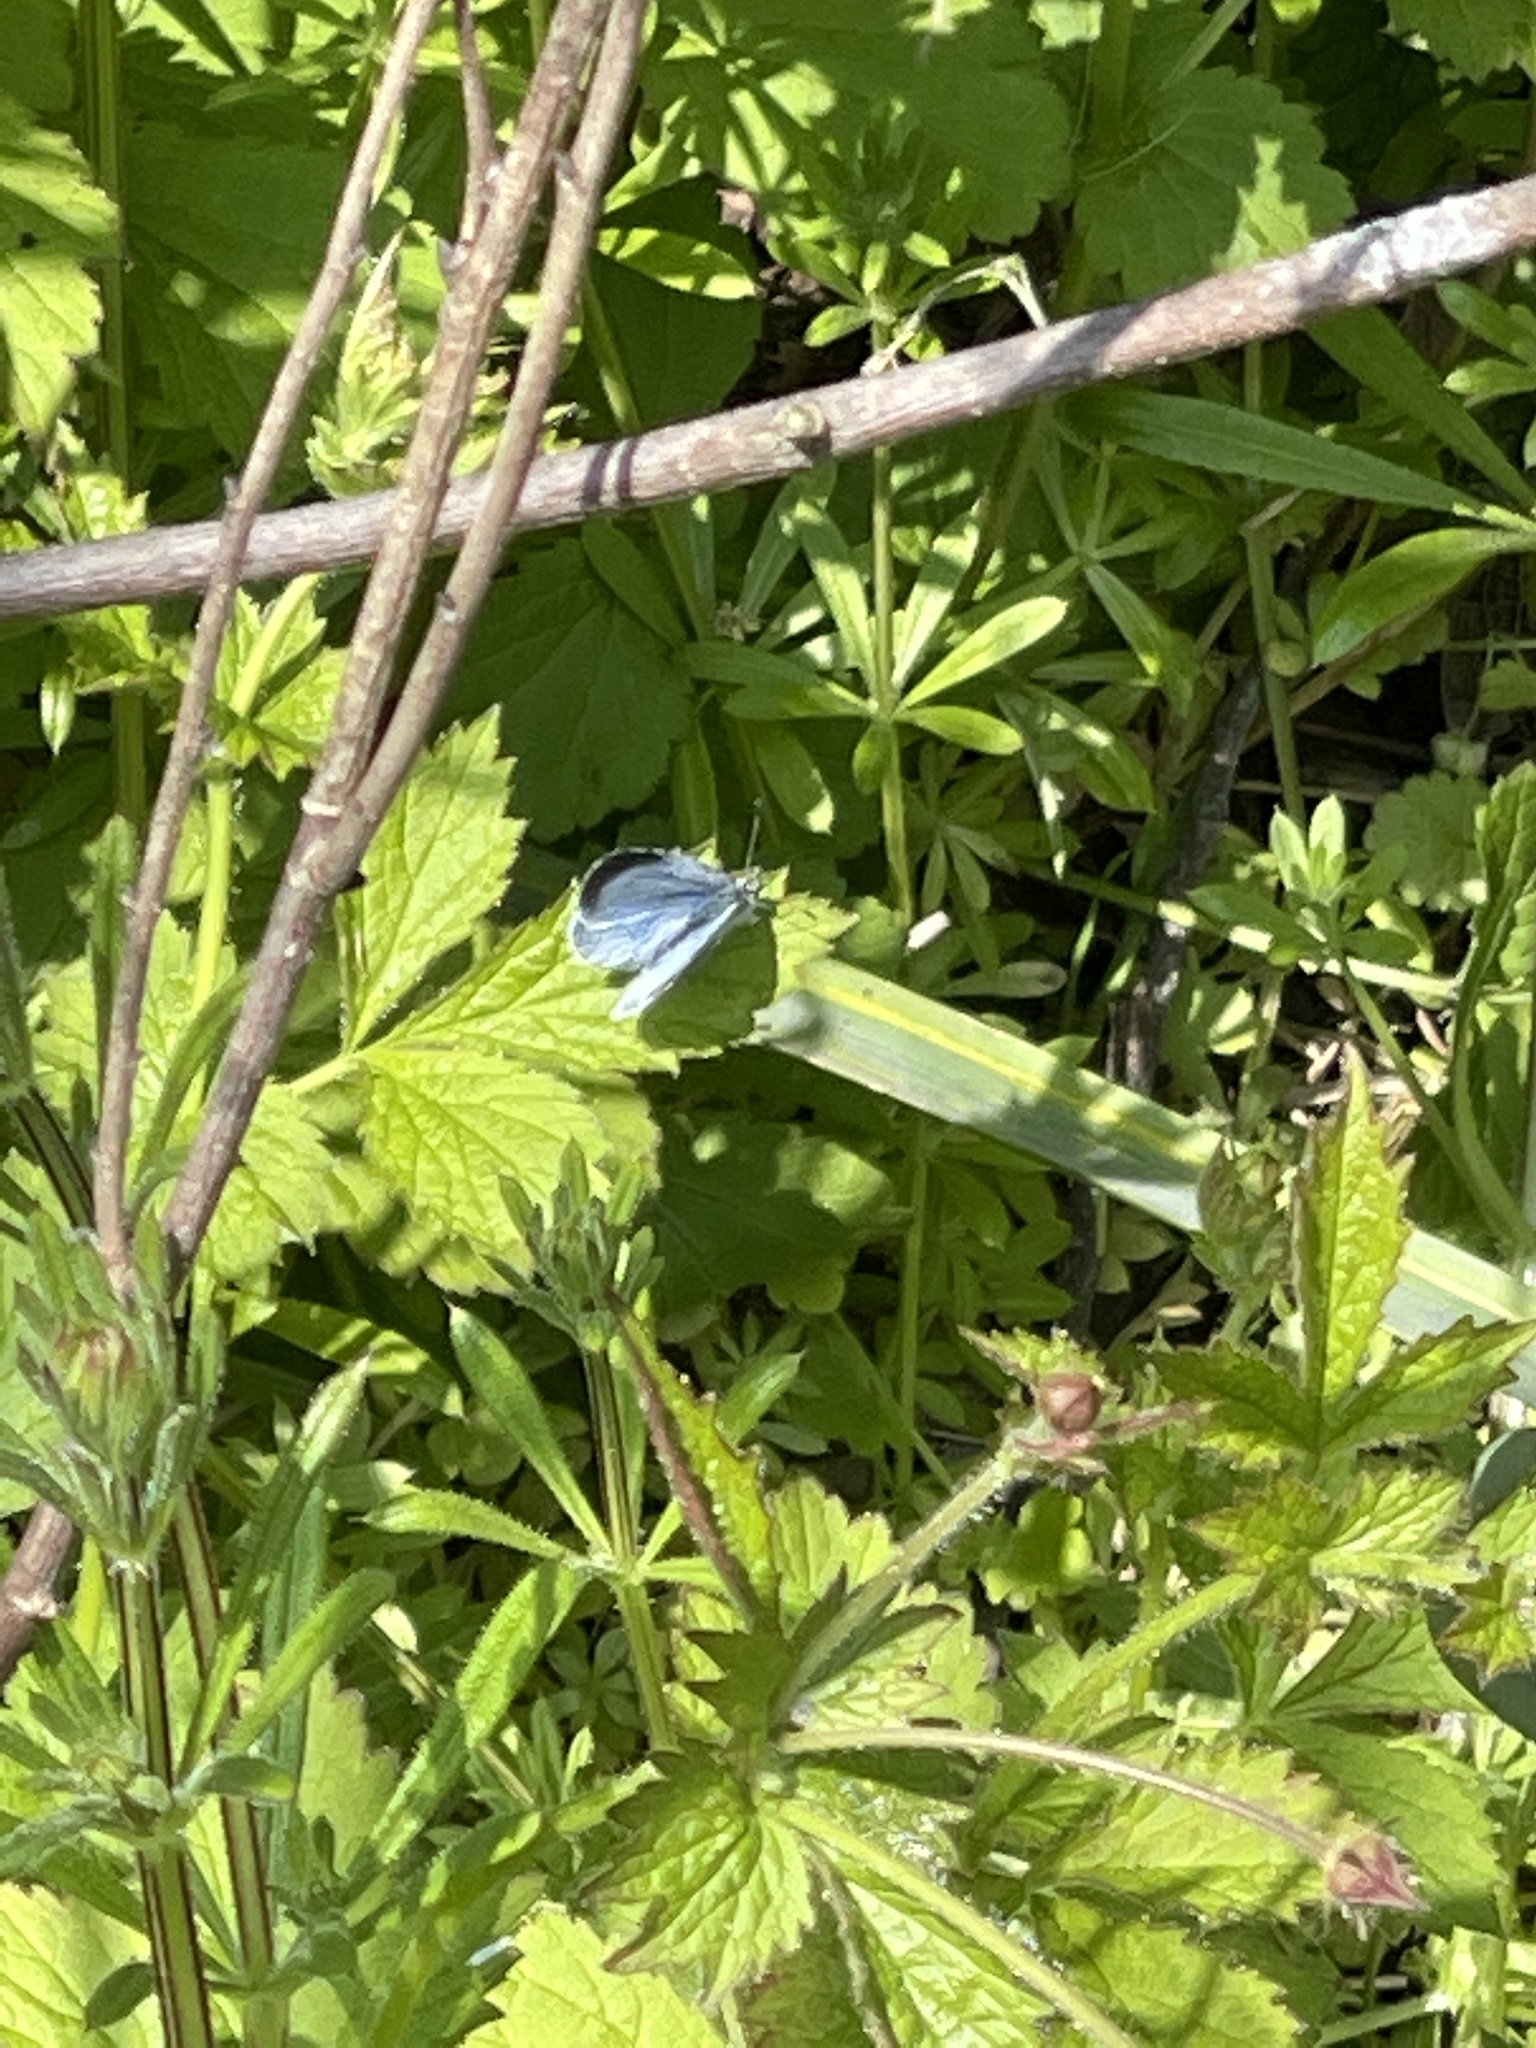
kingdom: Animalia
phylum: Arthropoda
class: Insecta
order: Lepidoptera
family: Lycaenidae
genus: Celastrina
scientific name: Celastrina argiolus
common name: Holly blue
